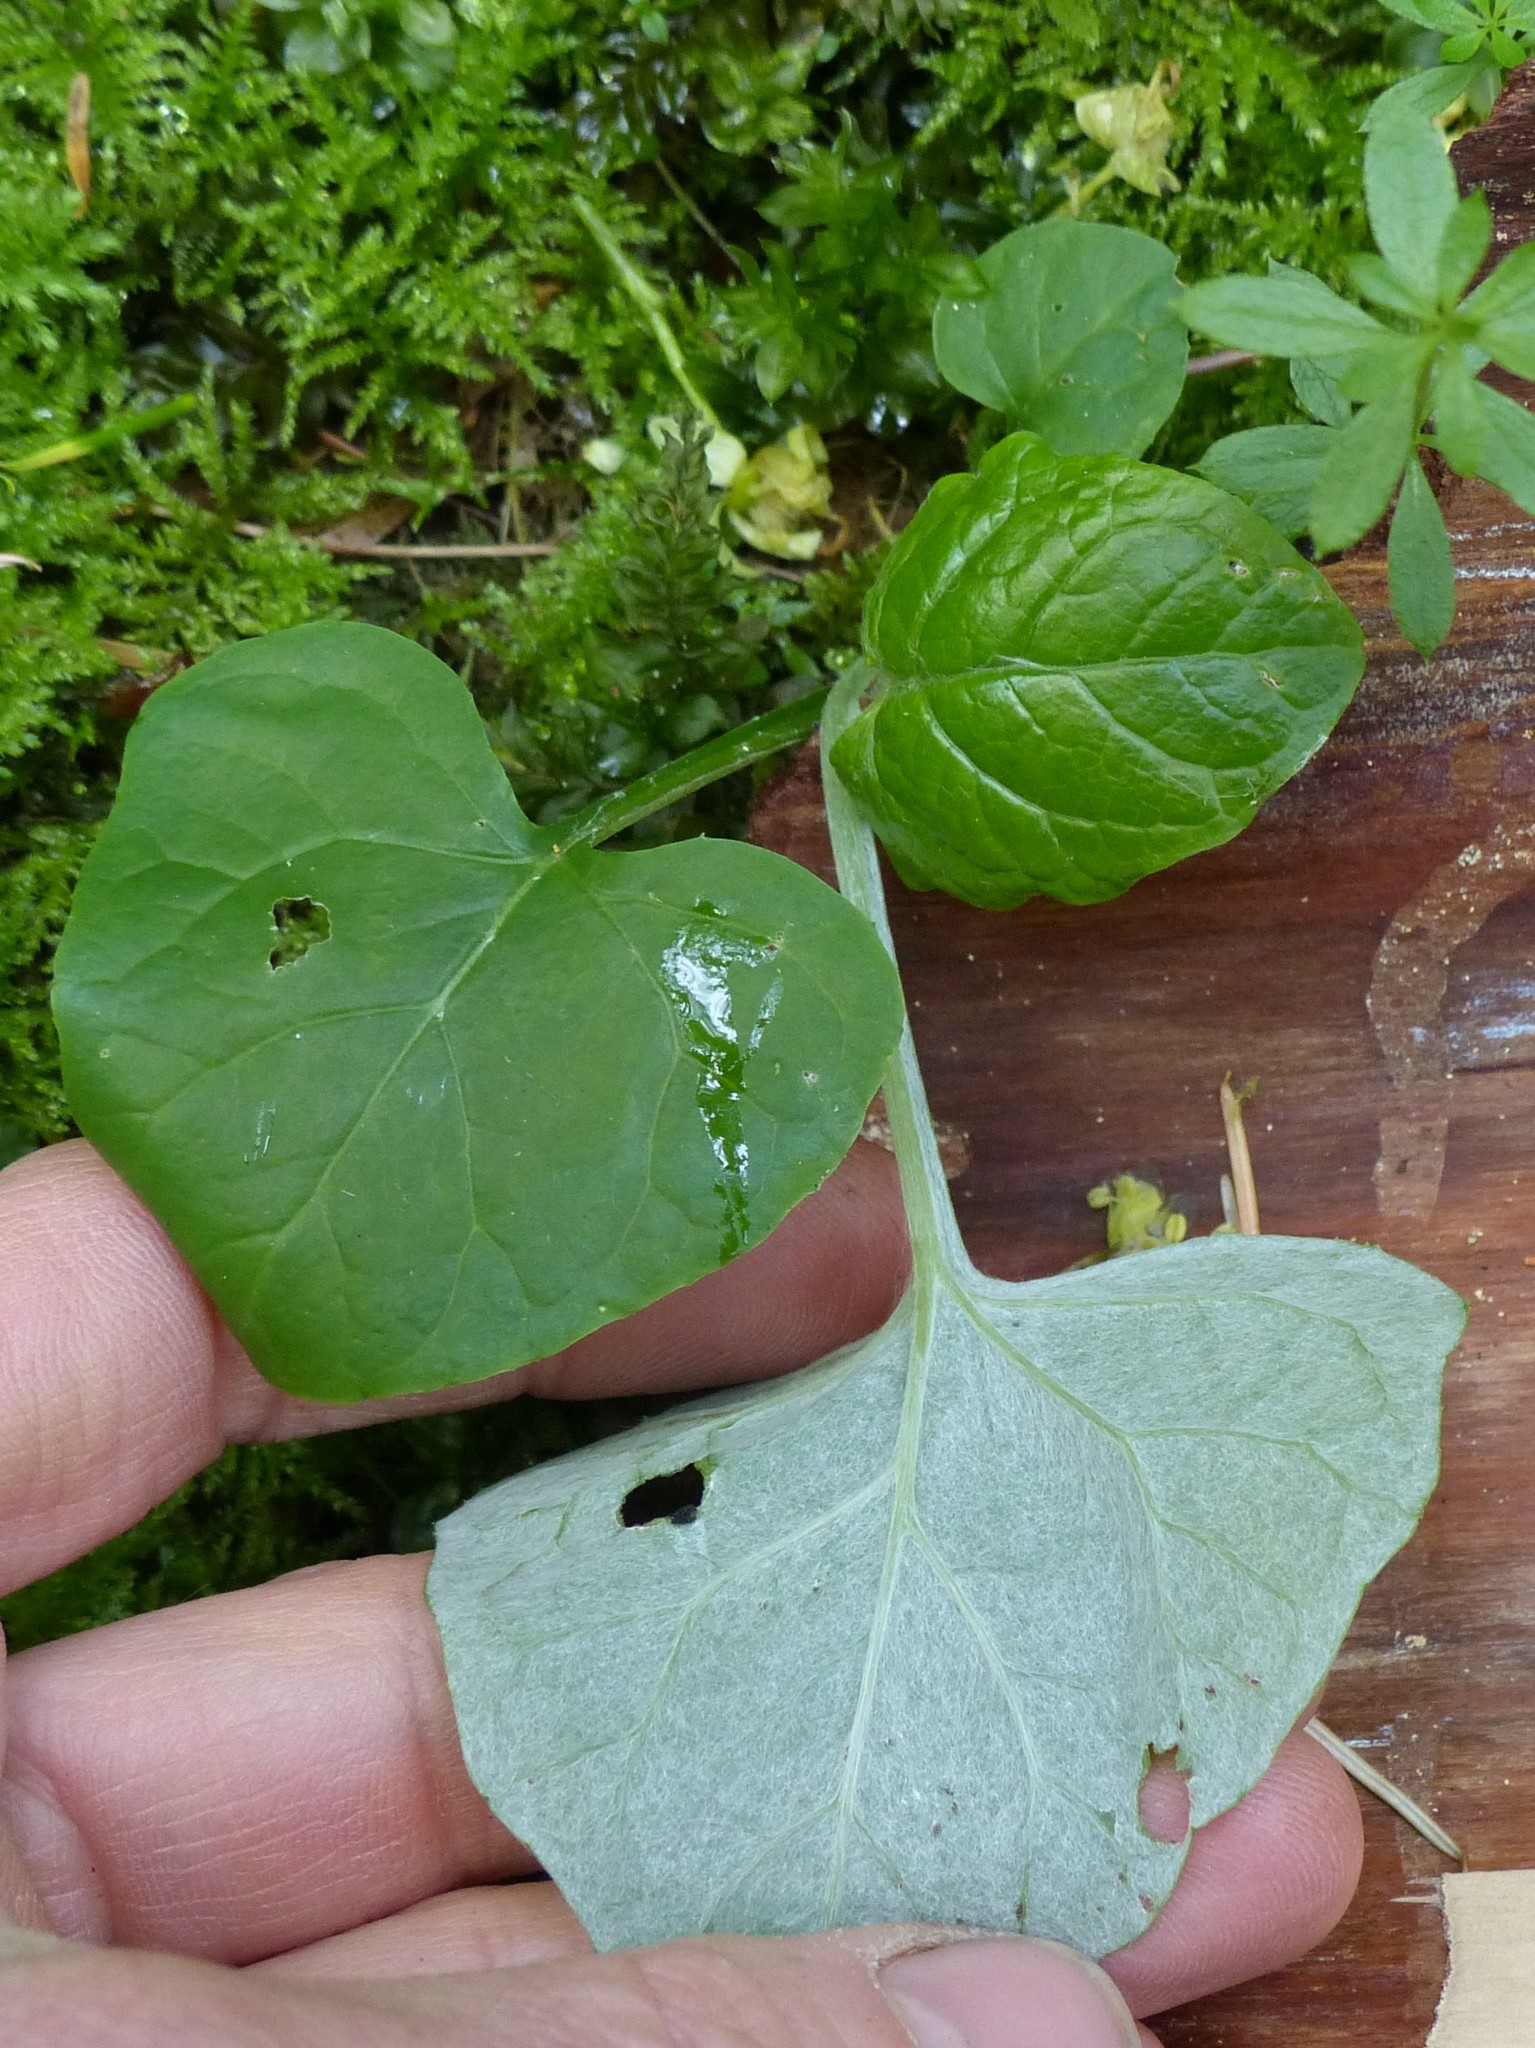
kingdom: Plantae
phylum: Tracheophyta
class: Magnoliopsida
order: Asterales
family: Asteraceae
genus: Adenocaulon
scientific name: Adenocaulon bicolor
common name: Trailplant
